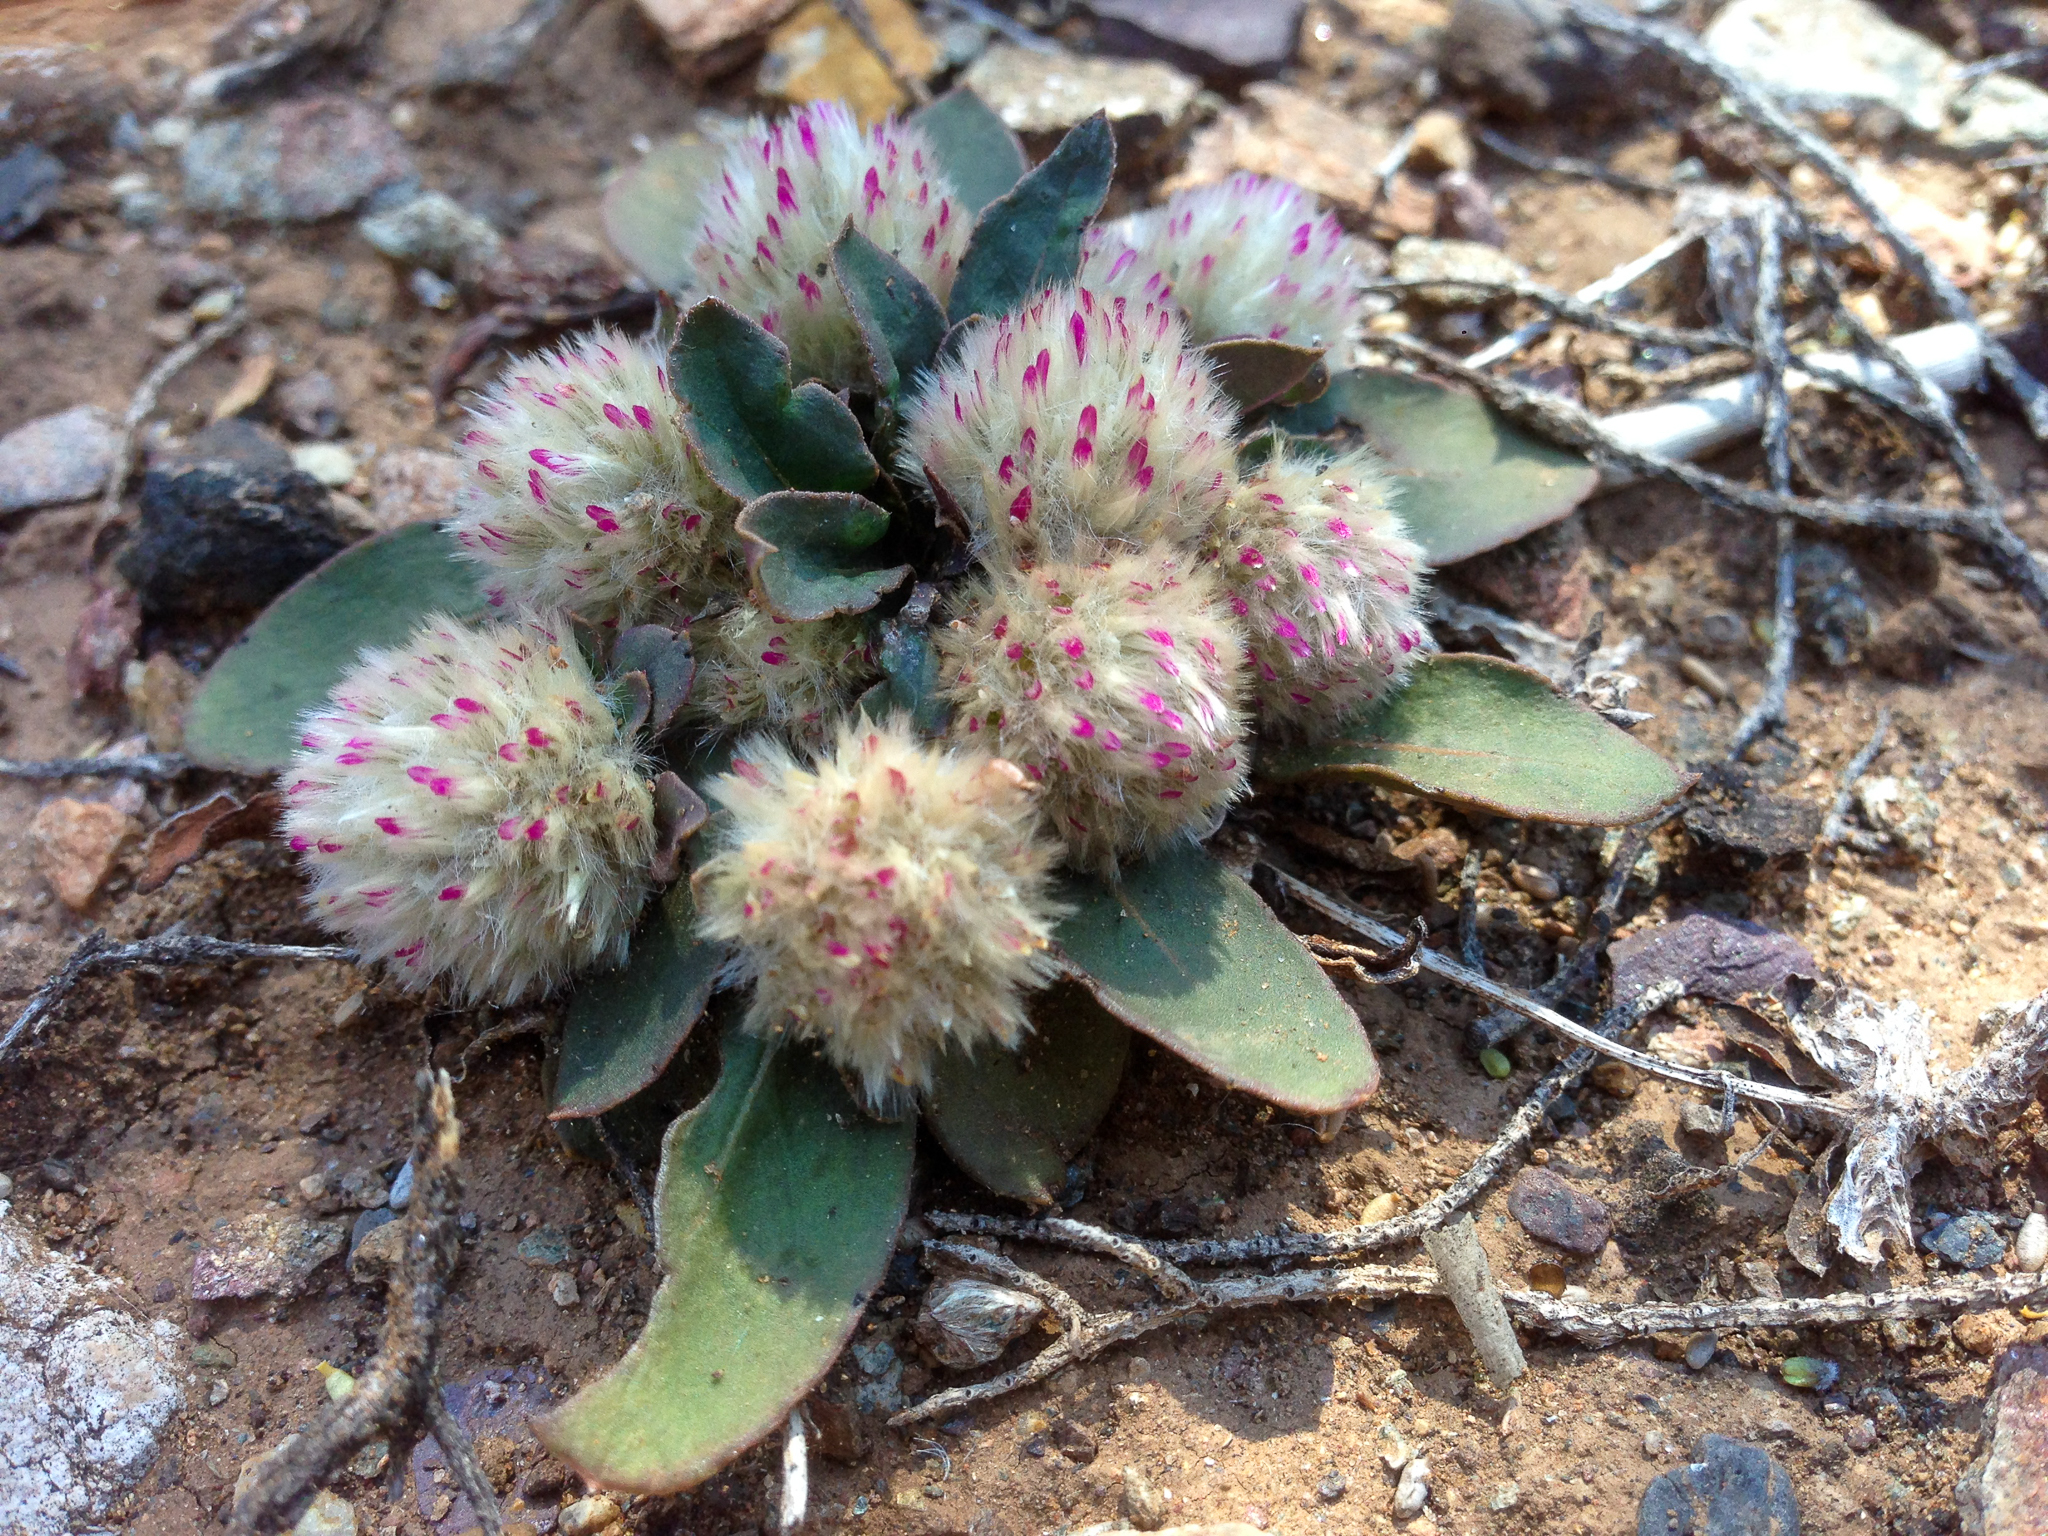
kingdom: Plantae
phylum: Tracheophyta
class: Magnoliopsida
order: Caryophyllales
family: Amaranthaceae
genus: Ptilotus
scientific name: Ptilotus holosericeus
